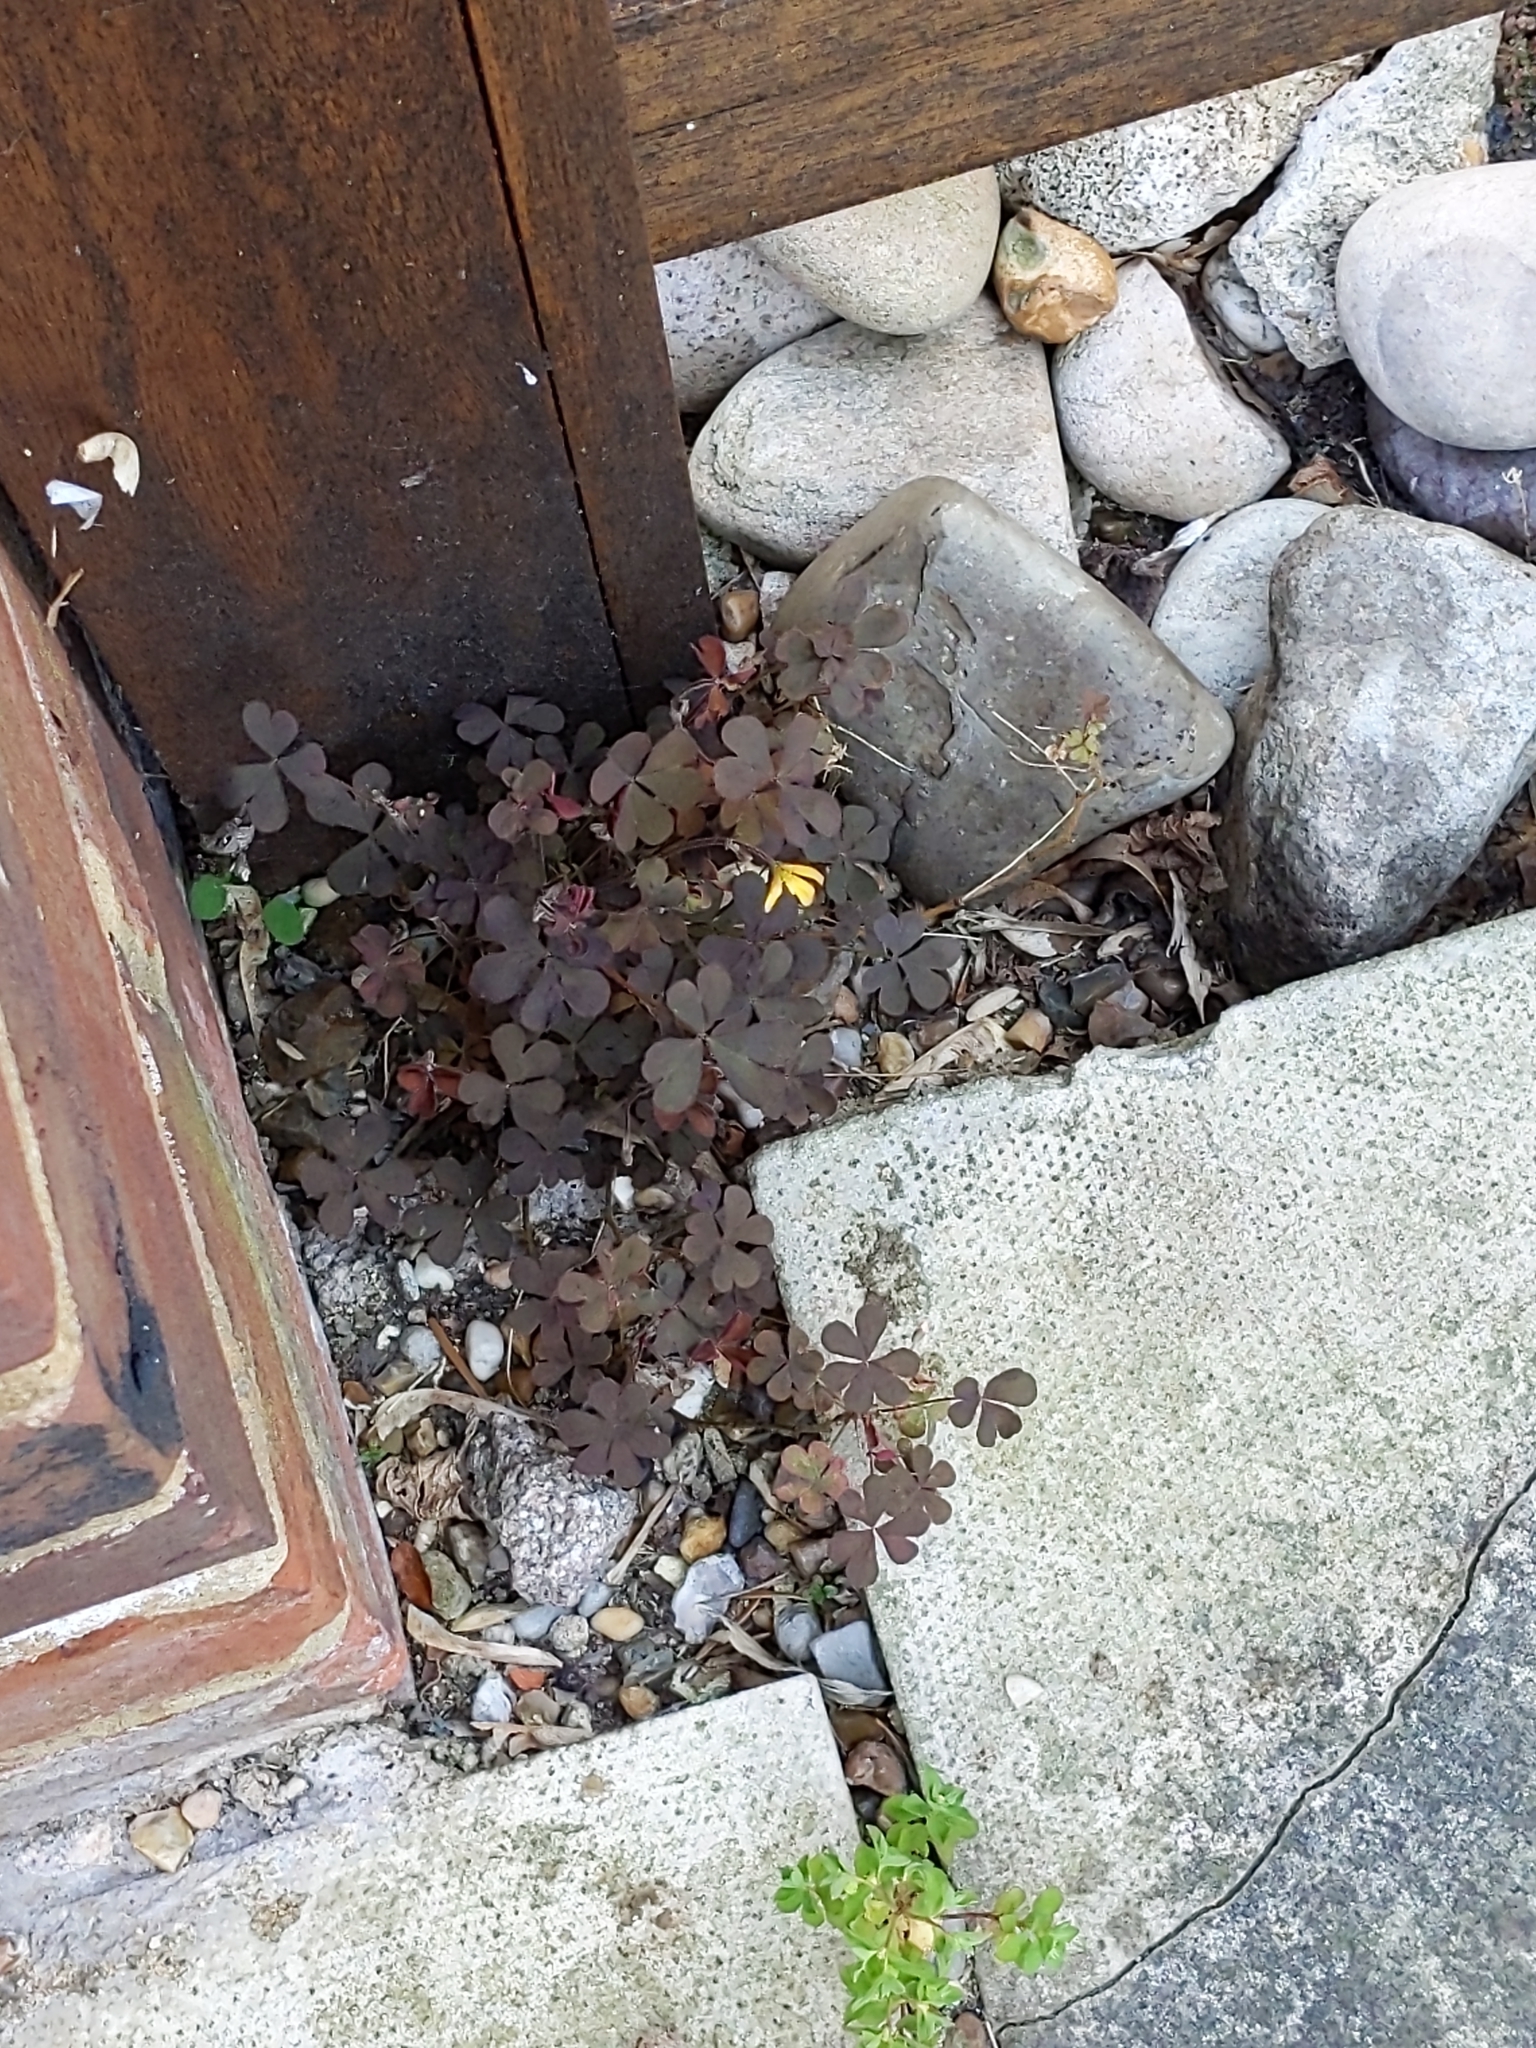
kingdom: Plantae
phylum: Tracheophyta
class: Magnoliopsida
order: Oxalidales
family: Oxalidaceae
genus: Oxalis
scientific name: Oxalis corniculata
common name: Procumbent yellow-sorrel
